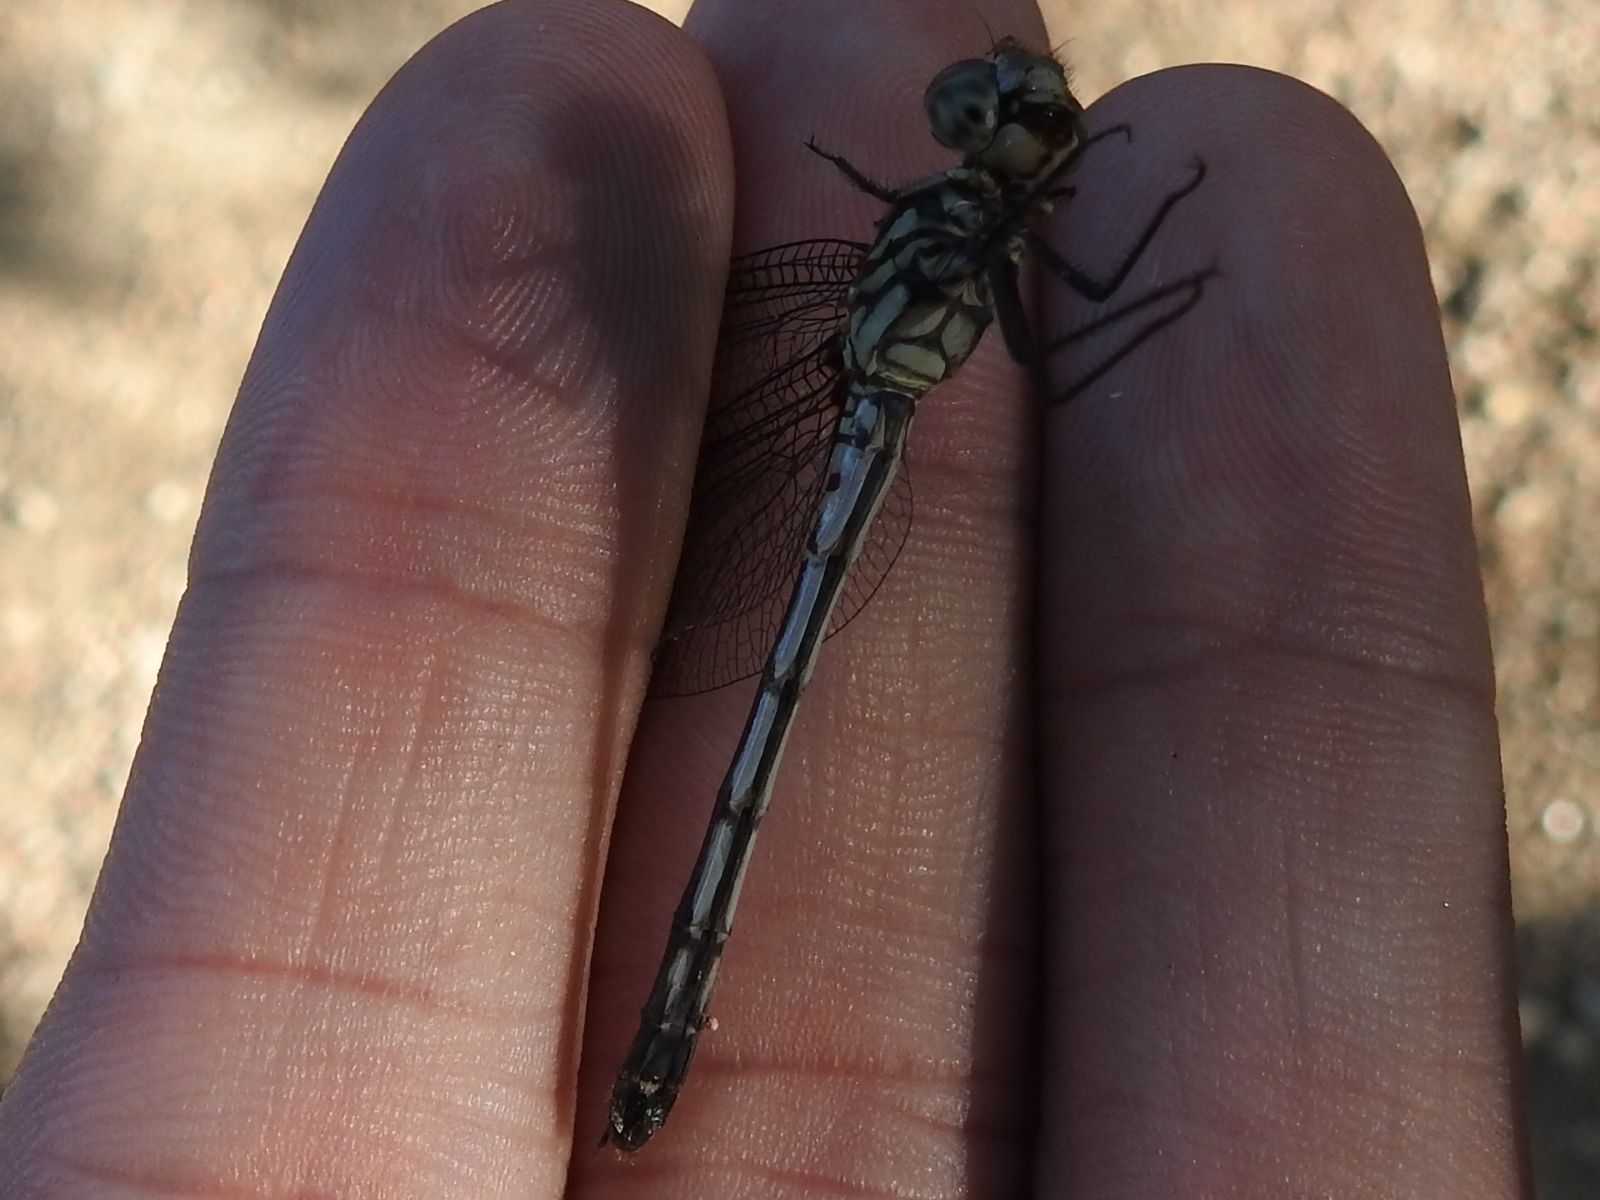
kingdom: Animalia
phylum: Arthropoda
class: Insecta
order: Odonata
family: Libellulidae
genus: Dythemis
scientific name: Dythemis velox
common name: Swift setwing
